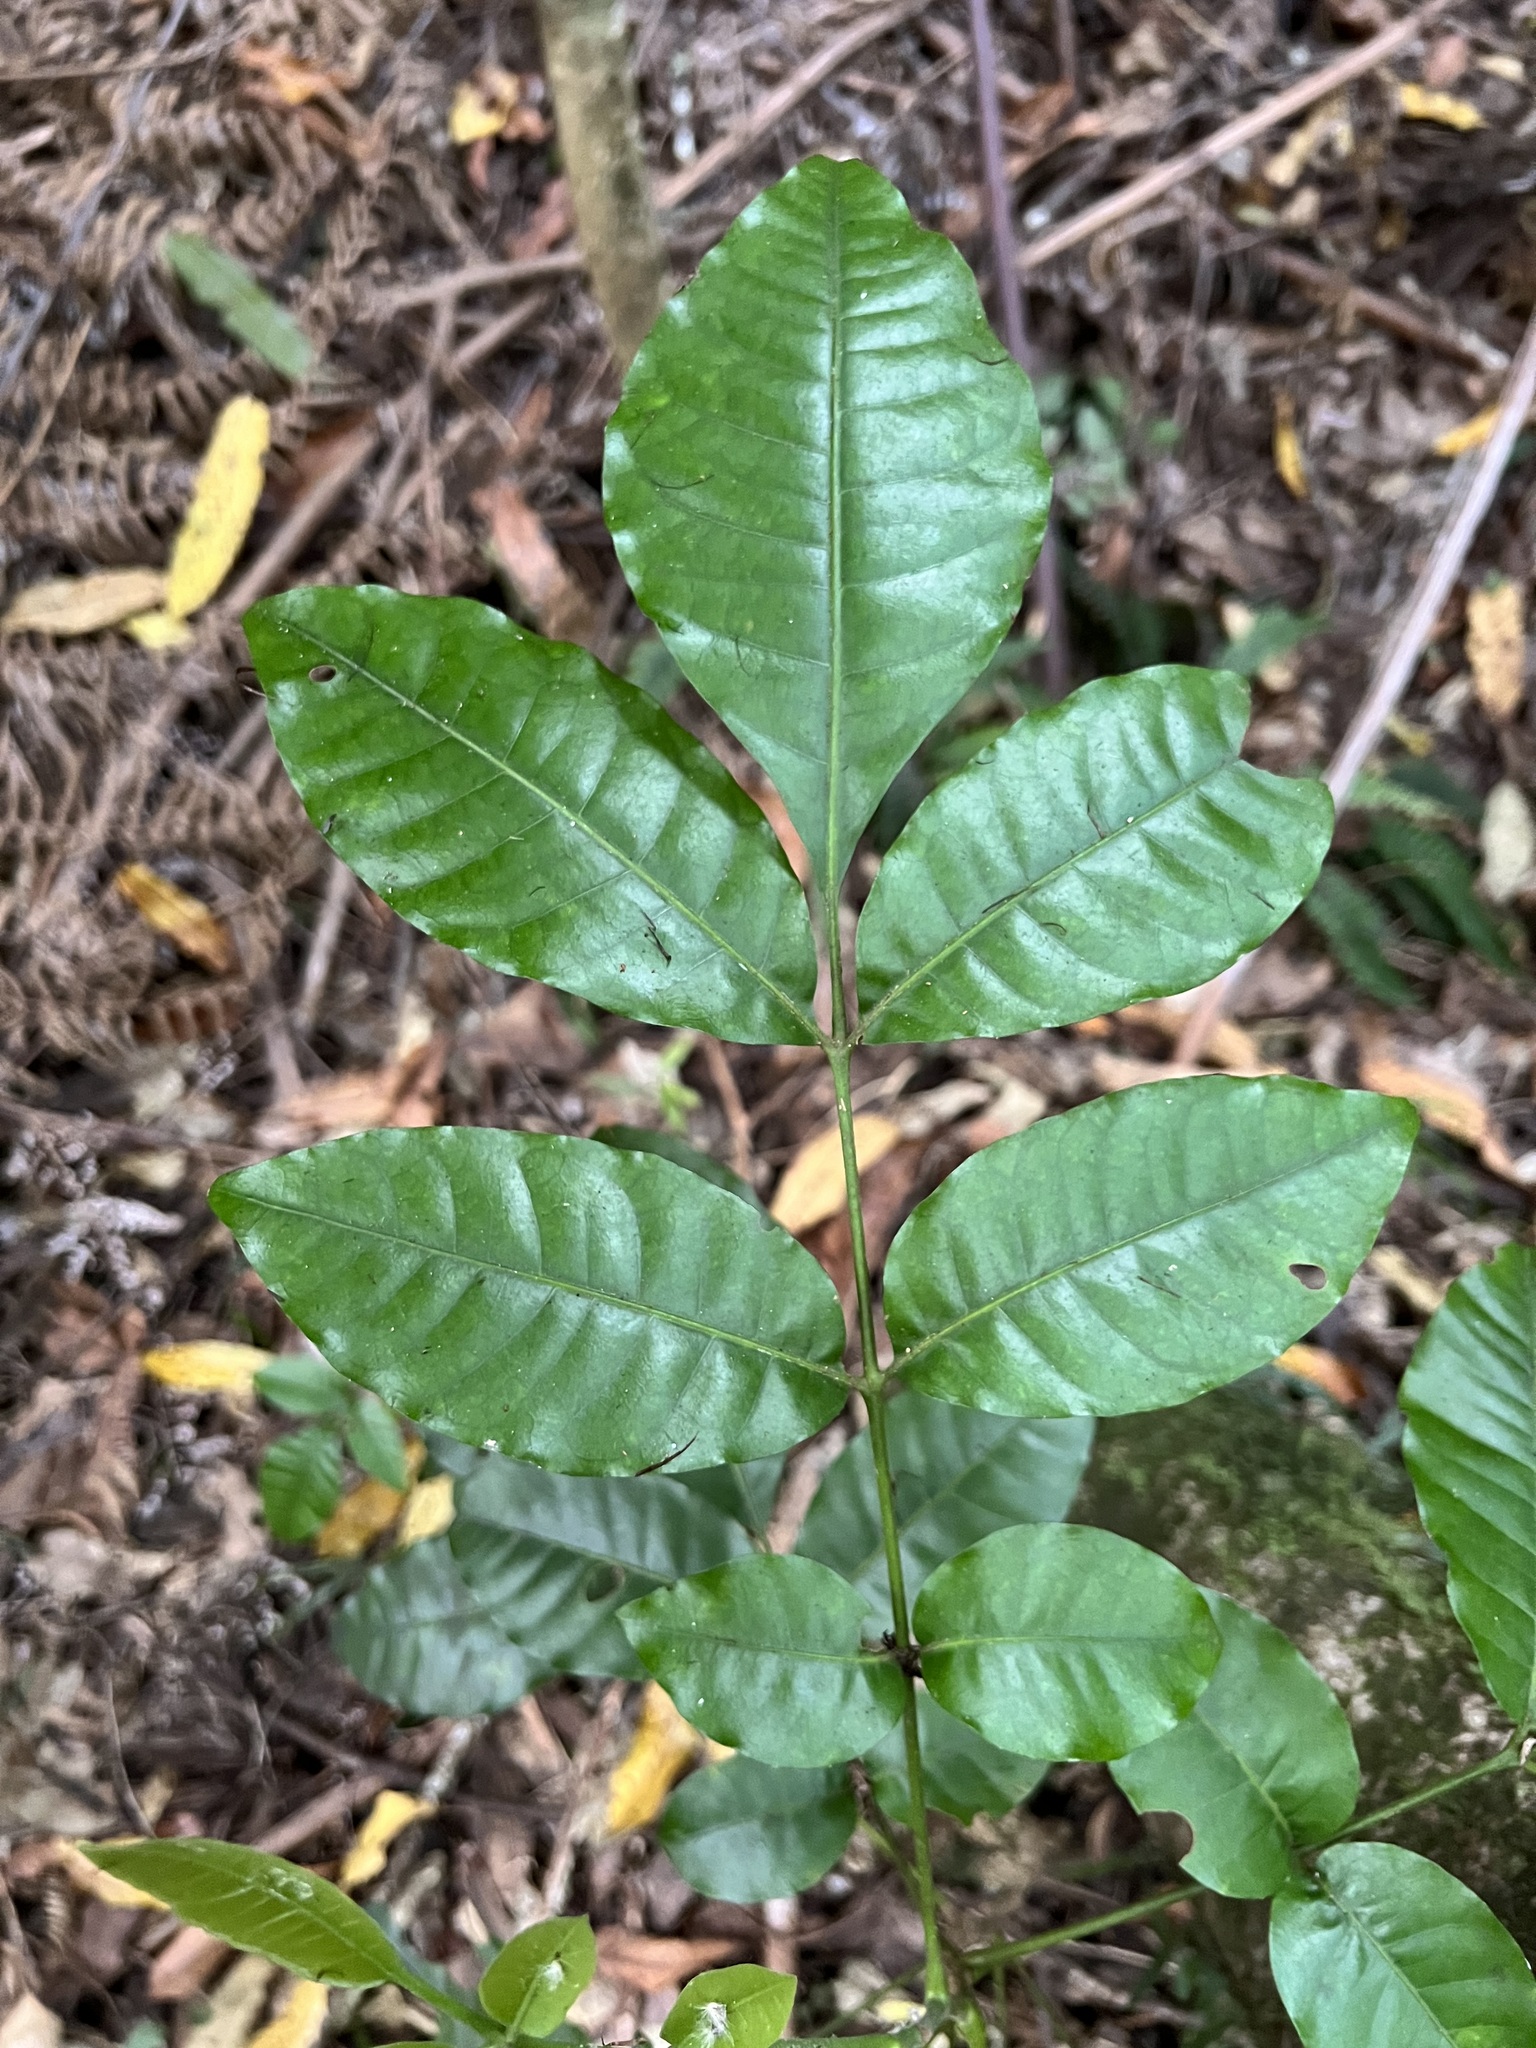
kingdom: Plantae
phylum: Tracheophyta
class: Magnoliopsida
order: Sapindales
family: Meliaceae
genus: Didymocheton
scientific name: Didymocheton spectabilis
